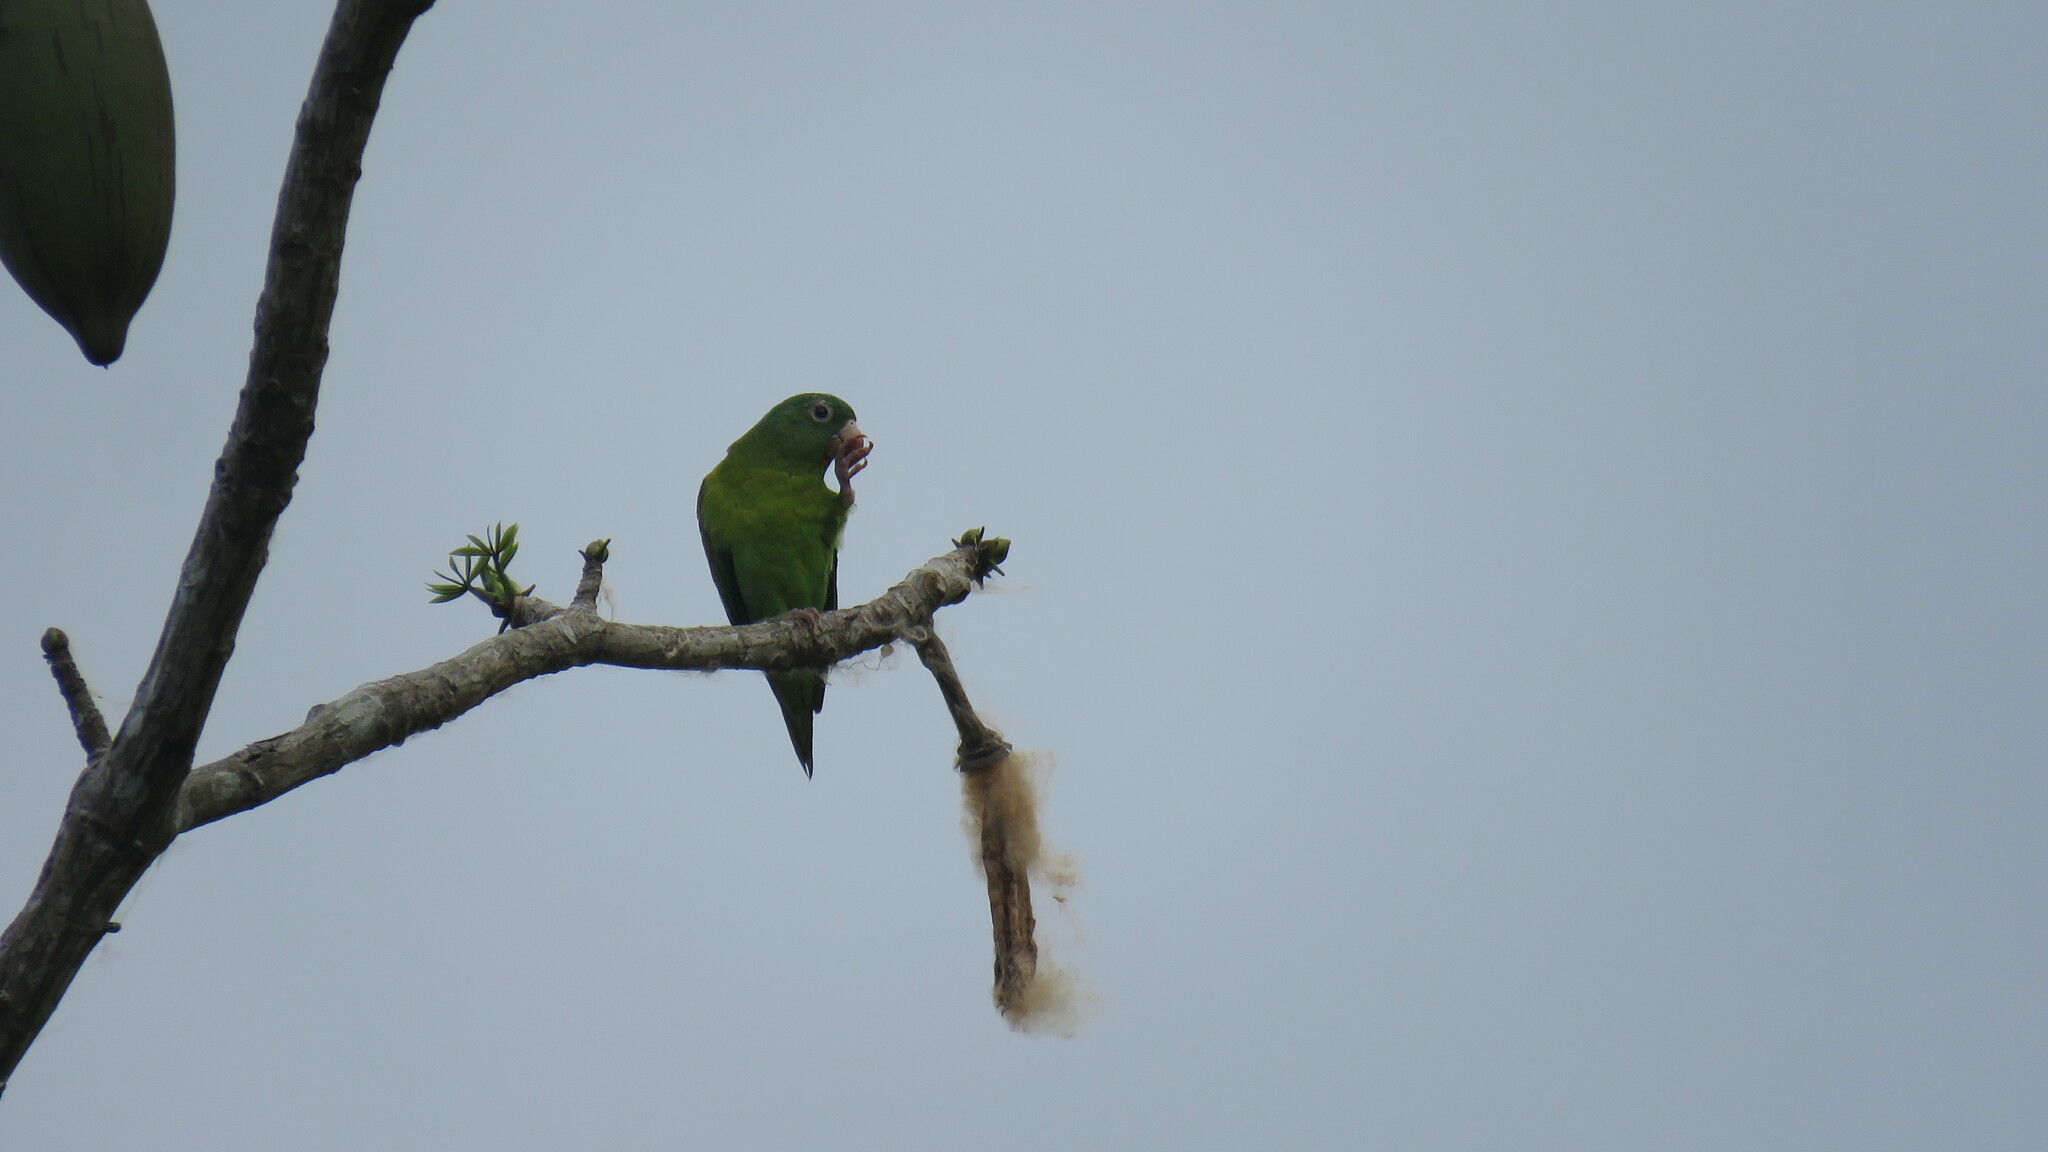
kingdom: Animalia
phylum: Chordata
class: Aves
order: Psittaciformes
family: Psittacidae
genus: Brotogeris
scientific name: Brotogeris jugularis
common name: Orange-chinned parakeet
